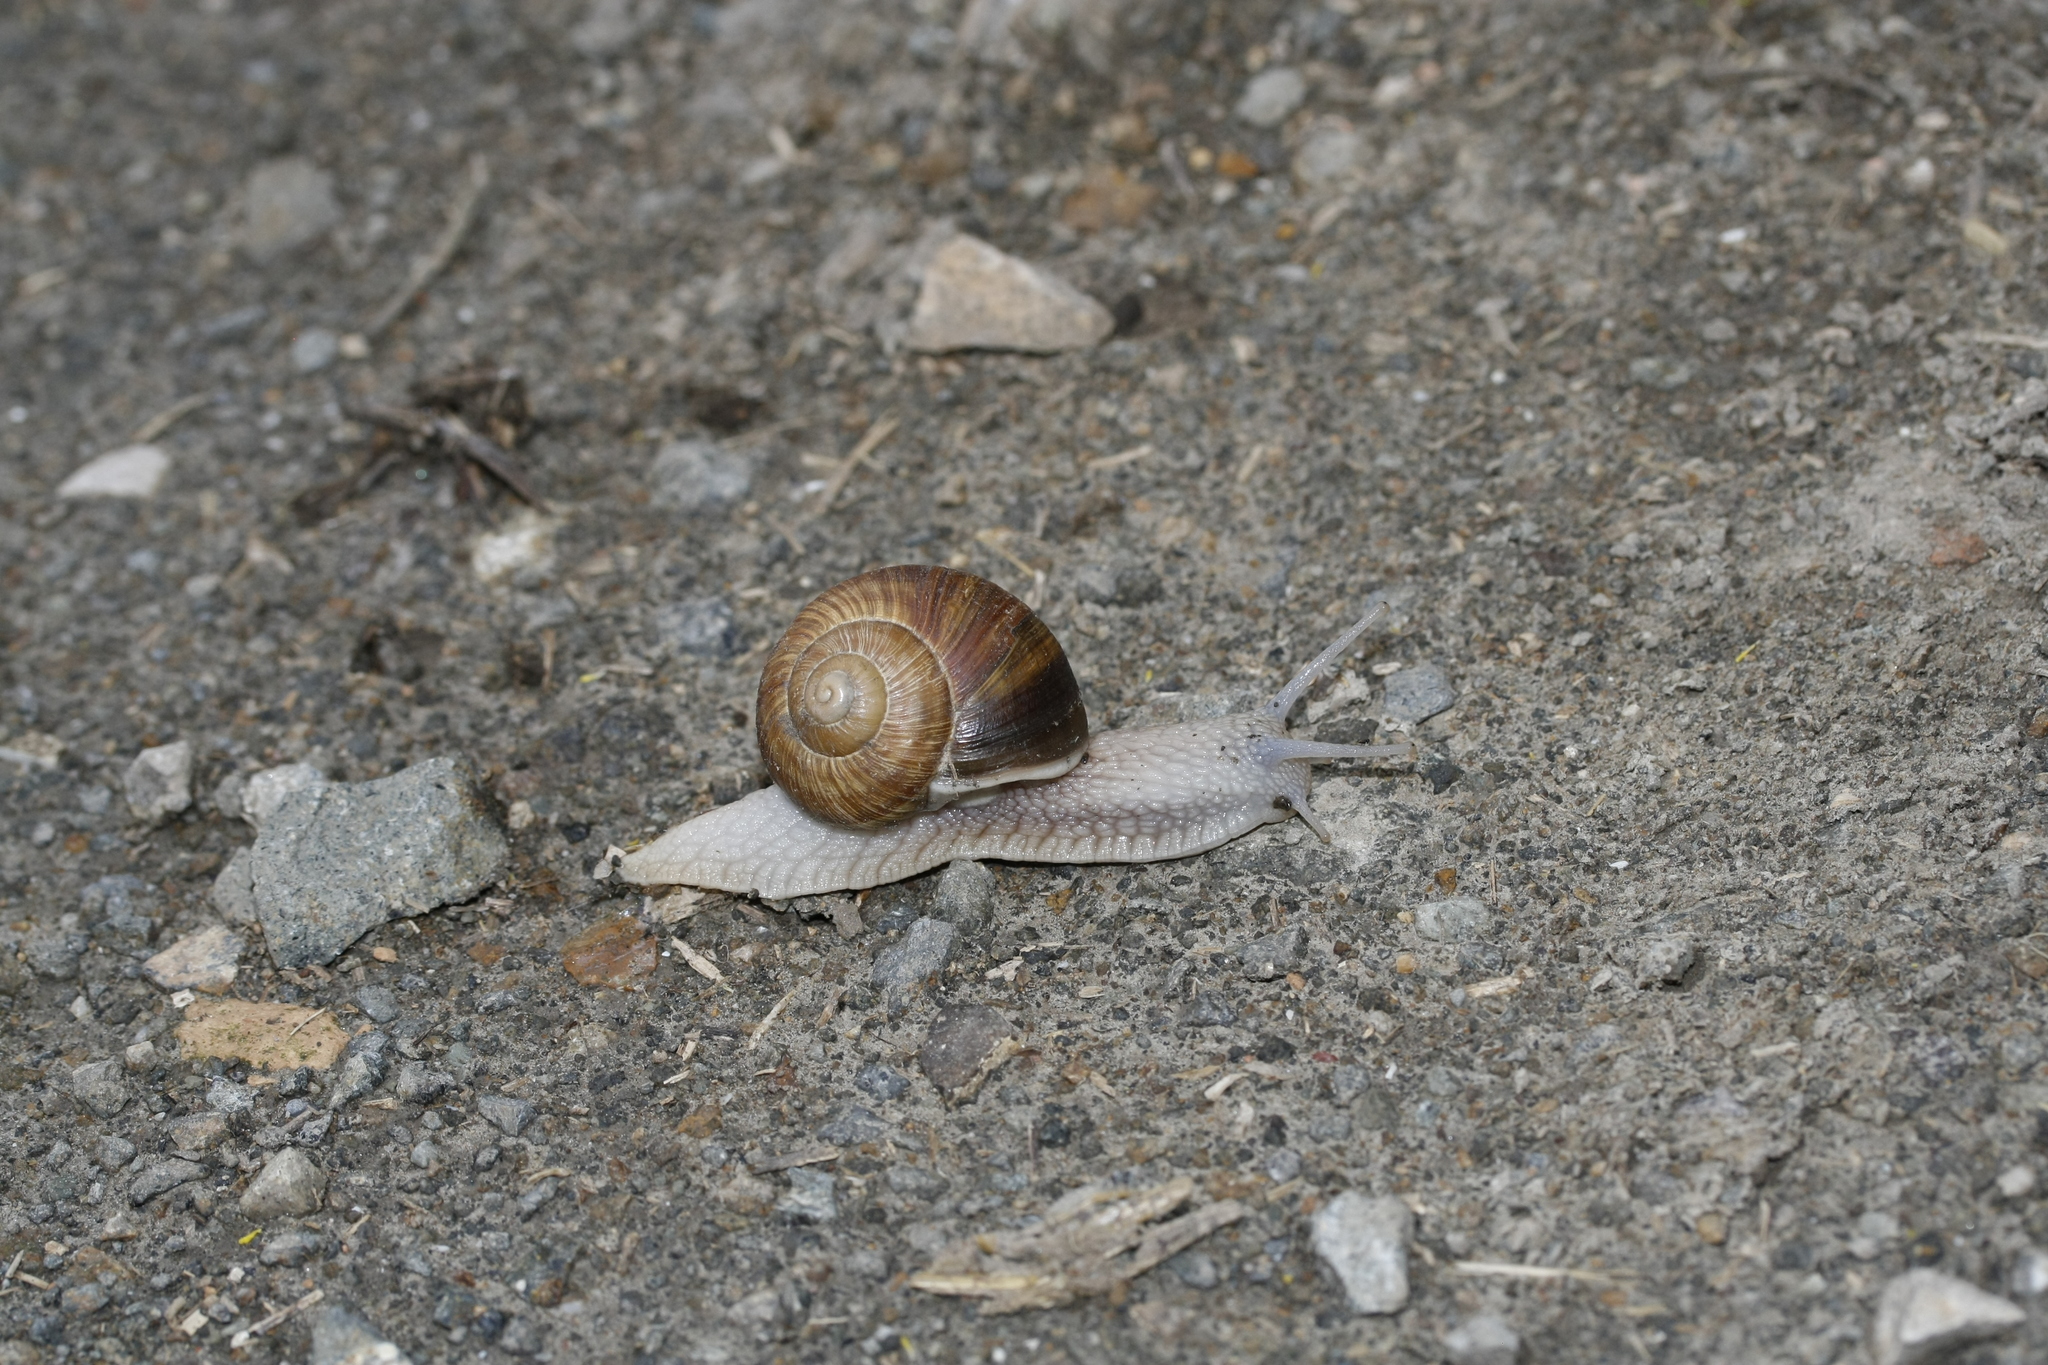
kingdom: Animalia
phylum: Mollusca
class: Gastropoda
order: Stylommatophora
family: Helicidae
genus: Helix
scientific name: Helix pomatia
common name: Roman snail
